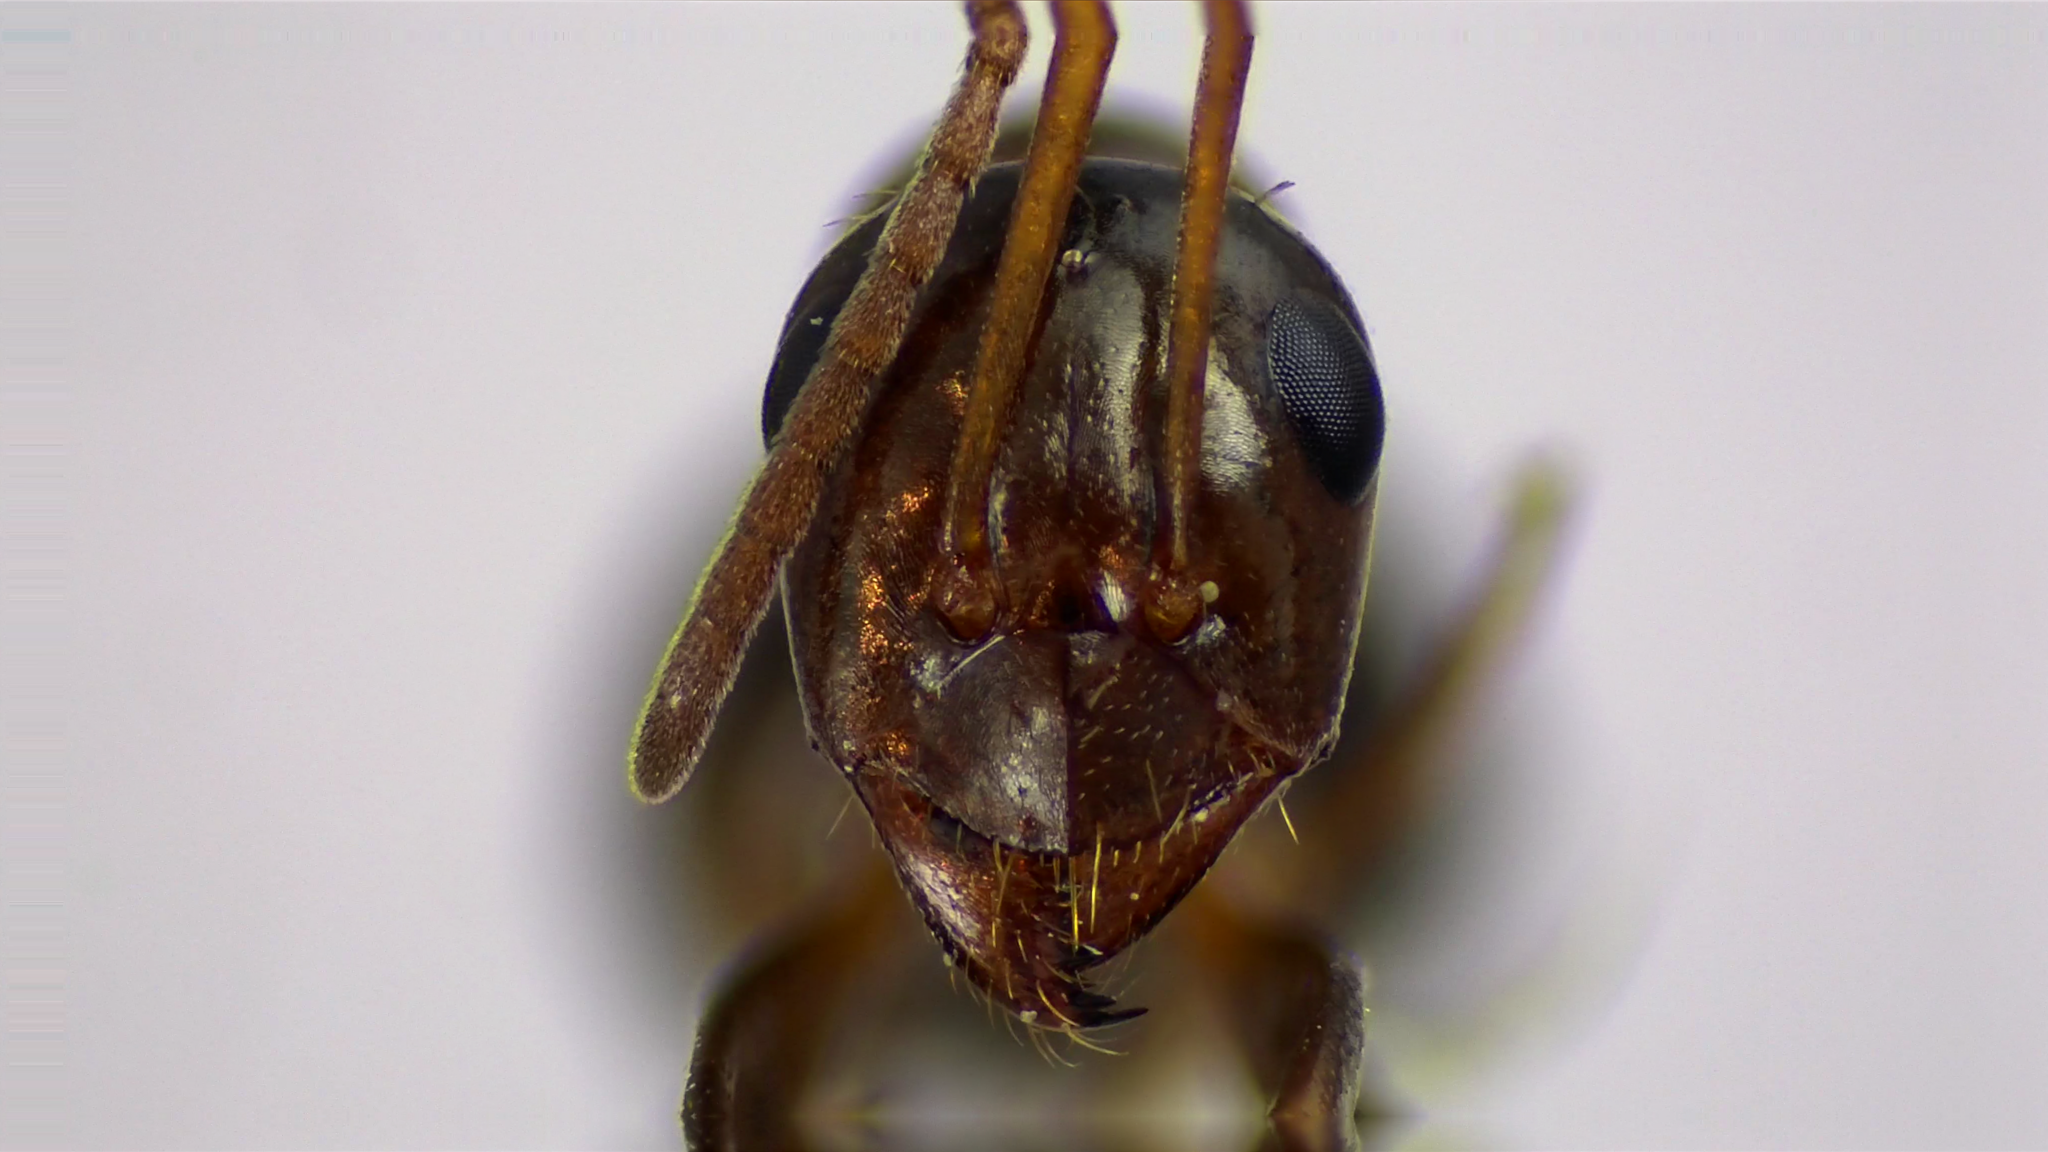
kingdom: Animalia
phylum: Arthropoda
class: Insecta
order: Hymenoptera
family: Formicidae
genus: Formica
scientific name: Formica pallidefulva
